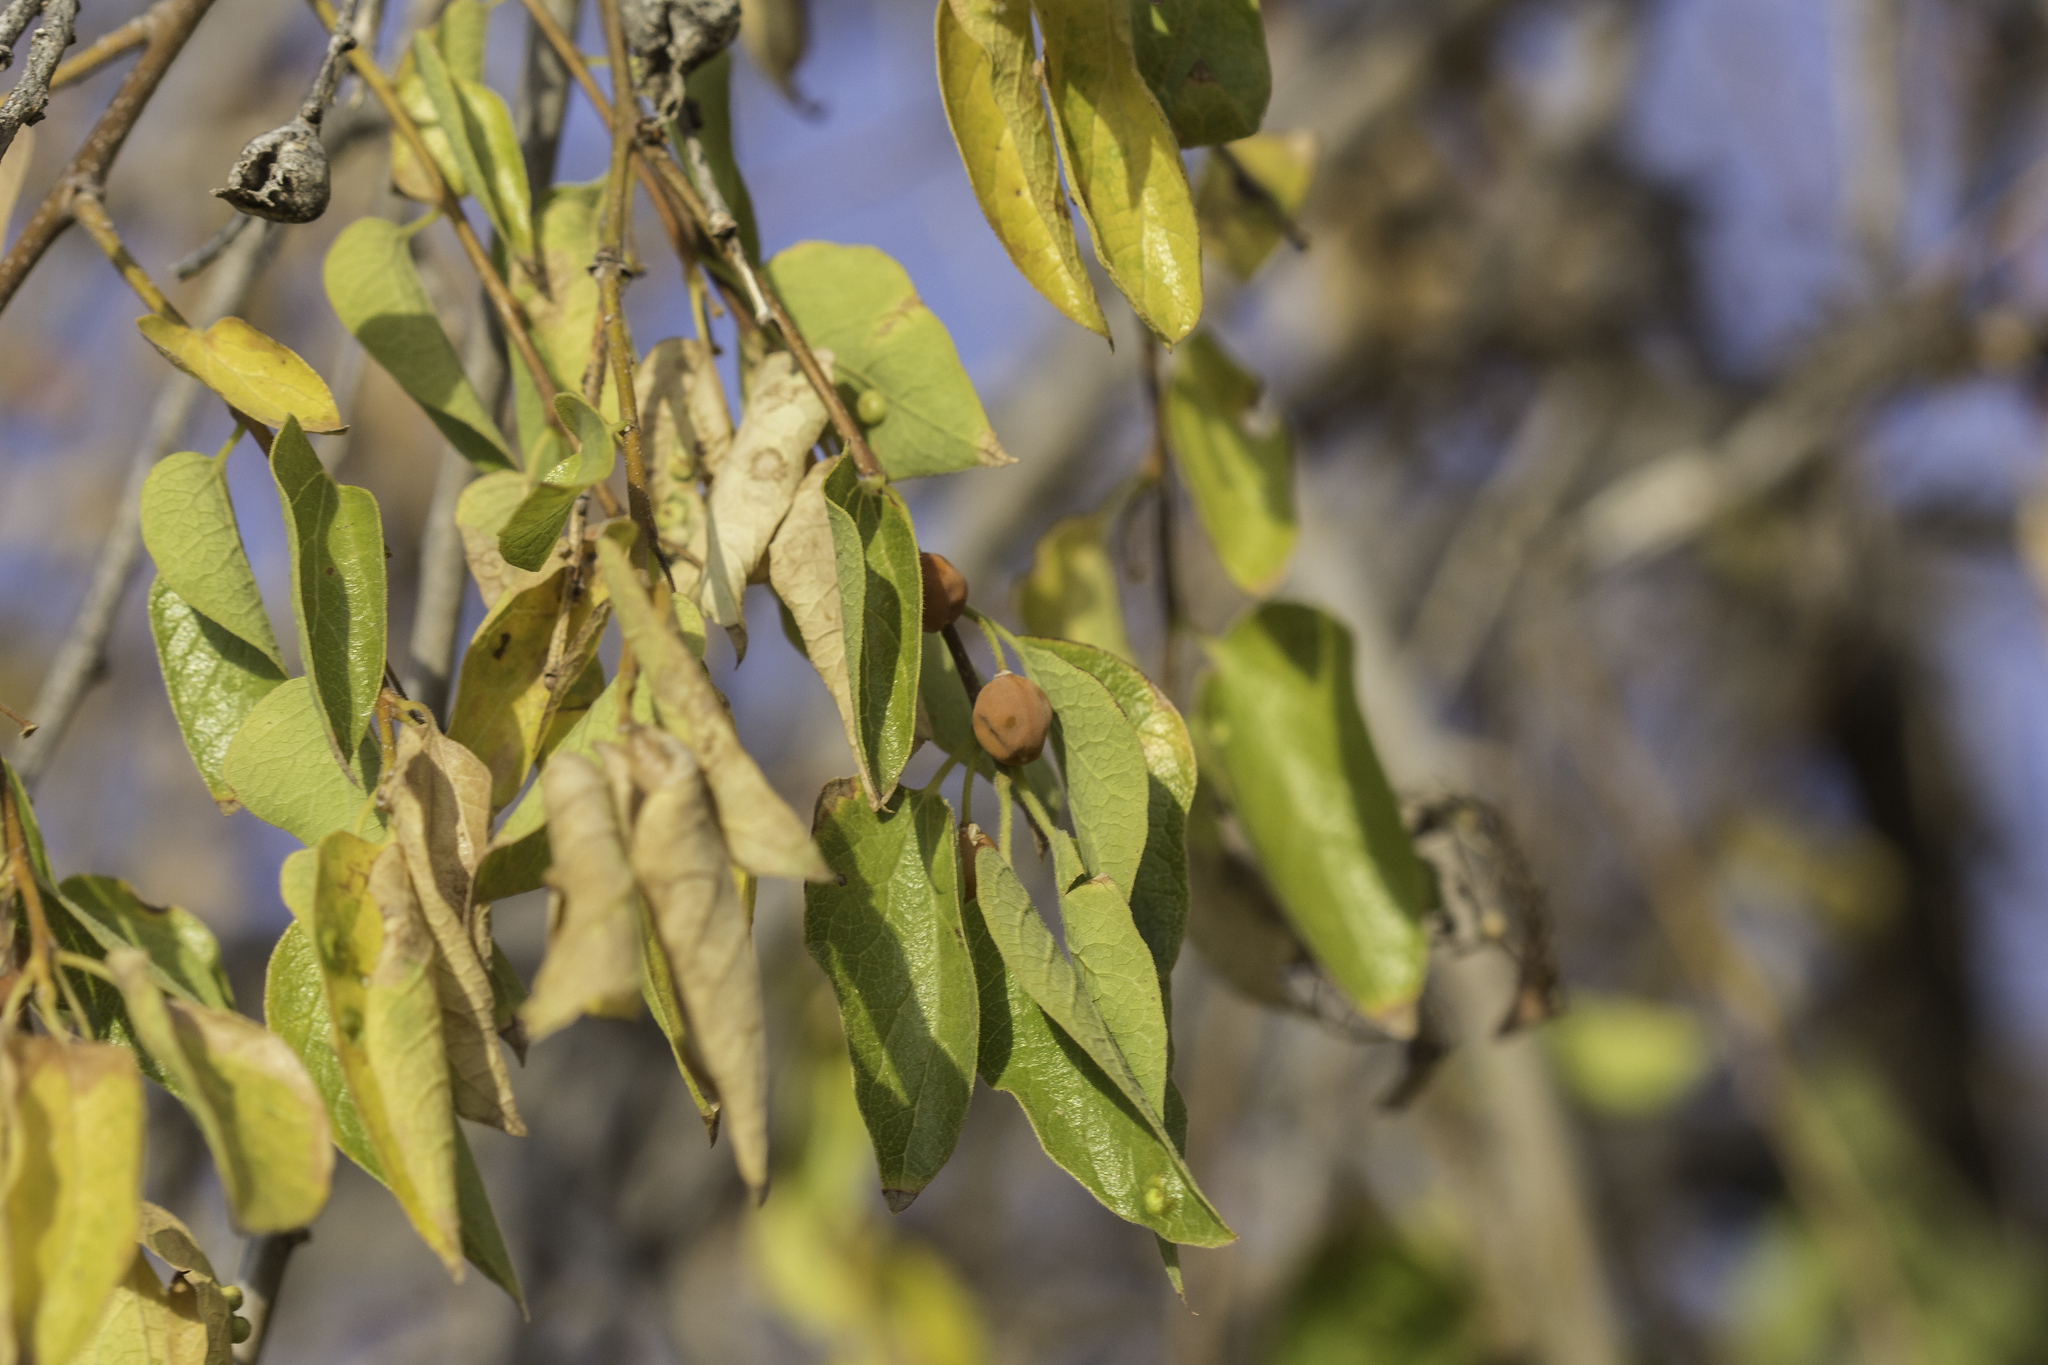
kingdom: Plantae
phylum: Tracheophyta
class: Magnoliopsida
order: Rosales
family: Cannabaceae
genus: Celtis
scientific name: Celtis reticulata
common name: Netleaf hackberry
